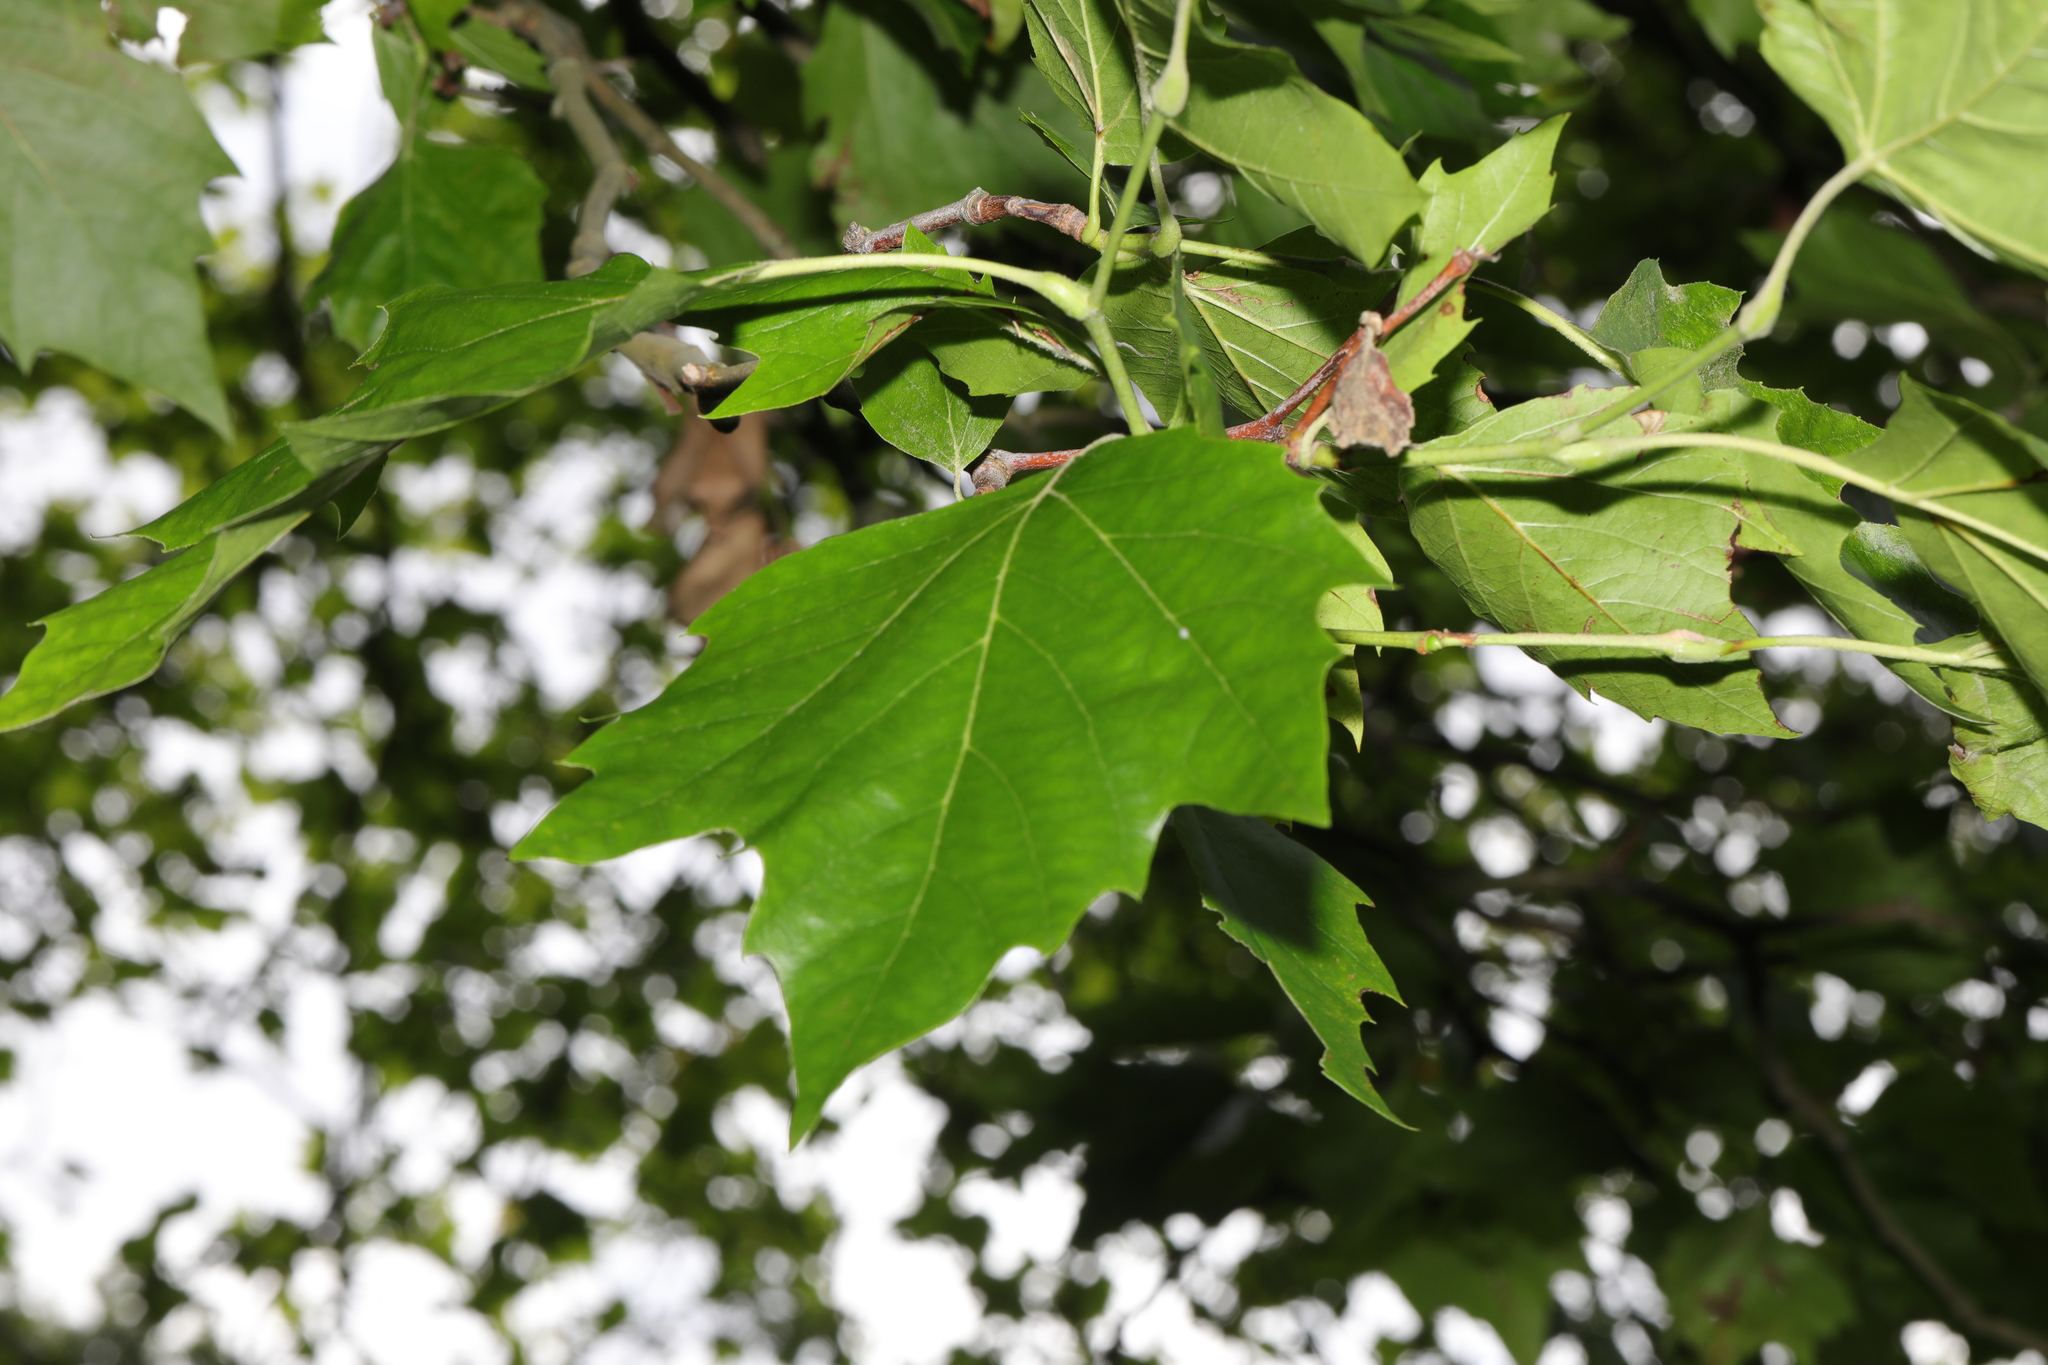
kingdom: Plantae
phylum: Tracheophyta
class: Magnoliopsida
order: Proteales
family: Platanaceae
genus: Platanus
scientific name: Platanus hispanica
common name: London plane
